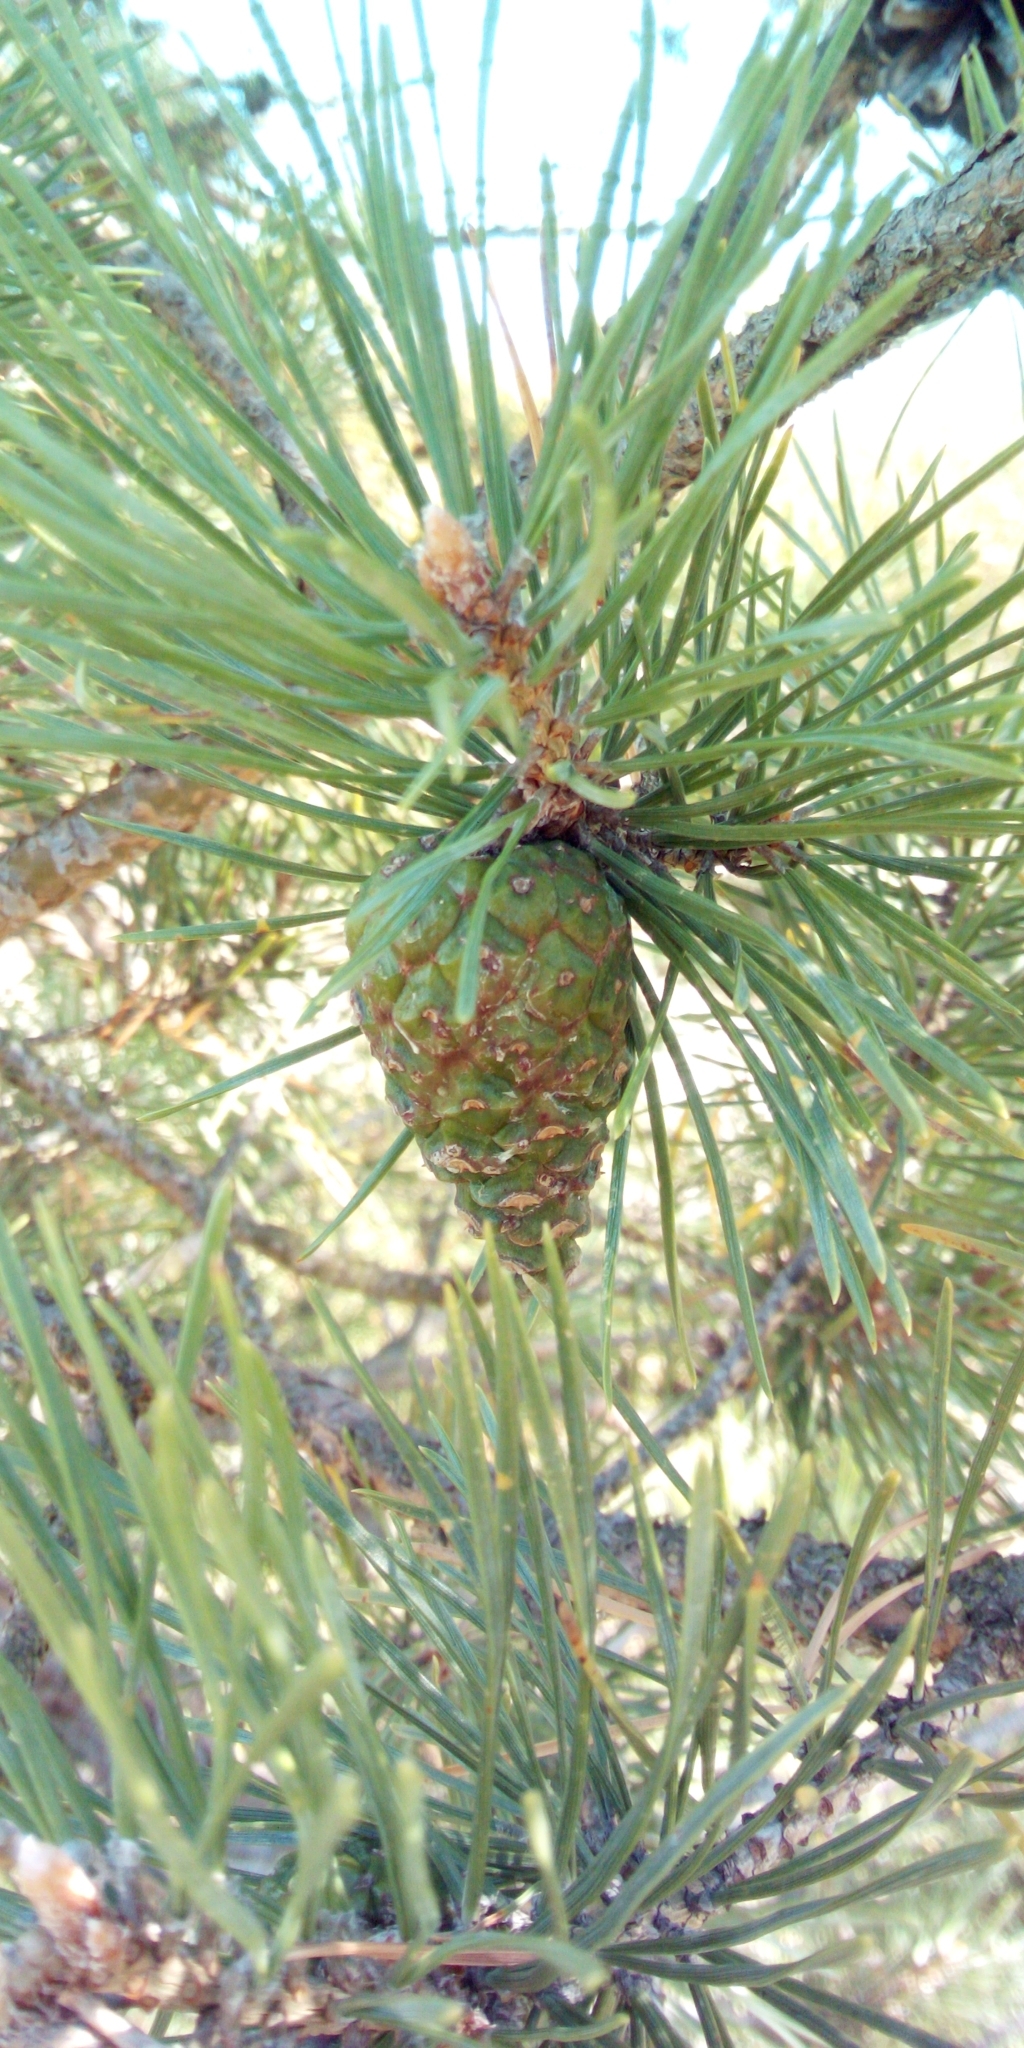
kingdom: Plantae
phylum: Tracheophyta
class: Pinopsida
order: Pinales
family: Pinaceae
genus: Pinus
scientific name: Pinus sylvestris
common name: Scots pine
